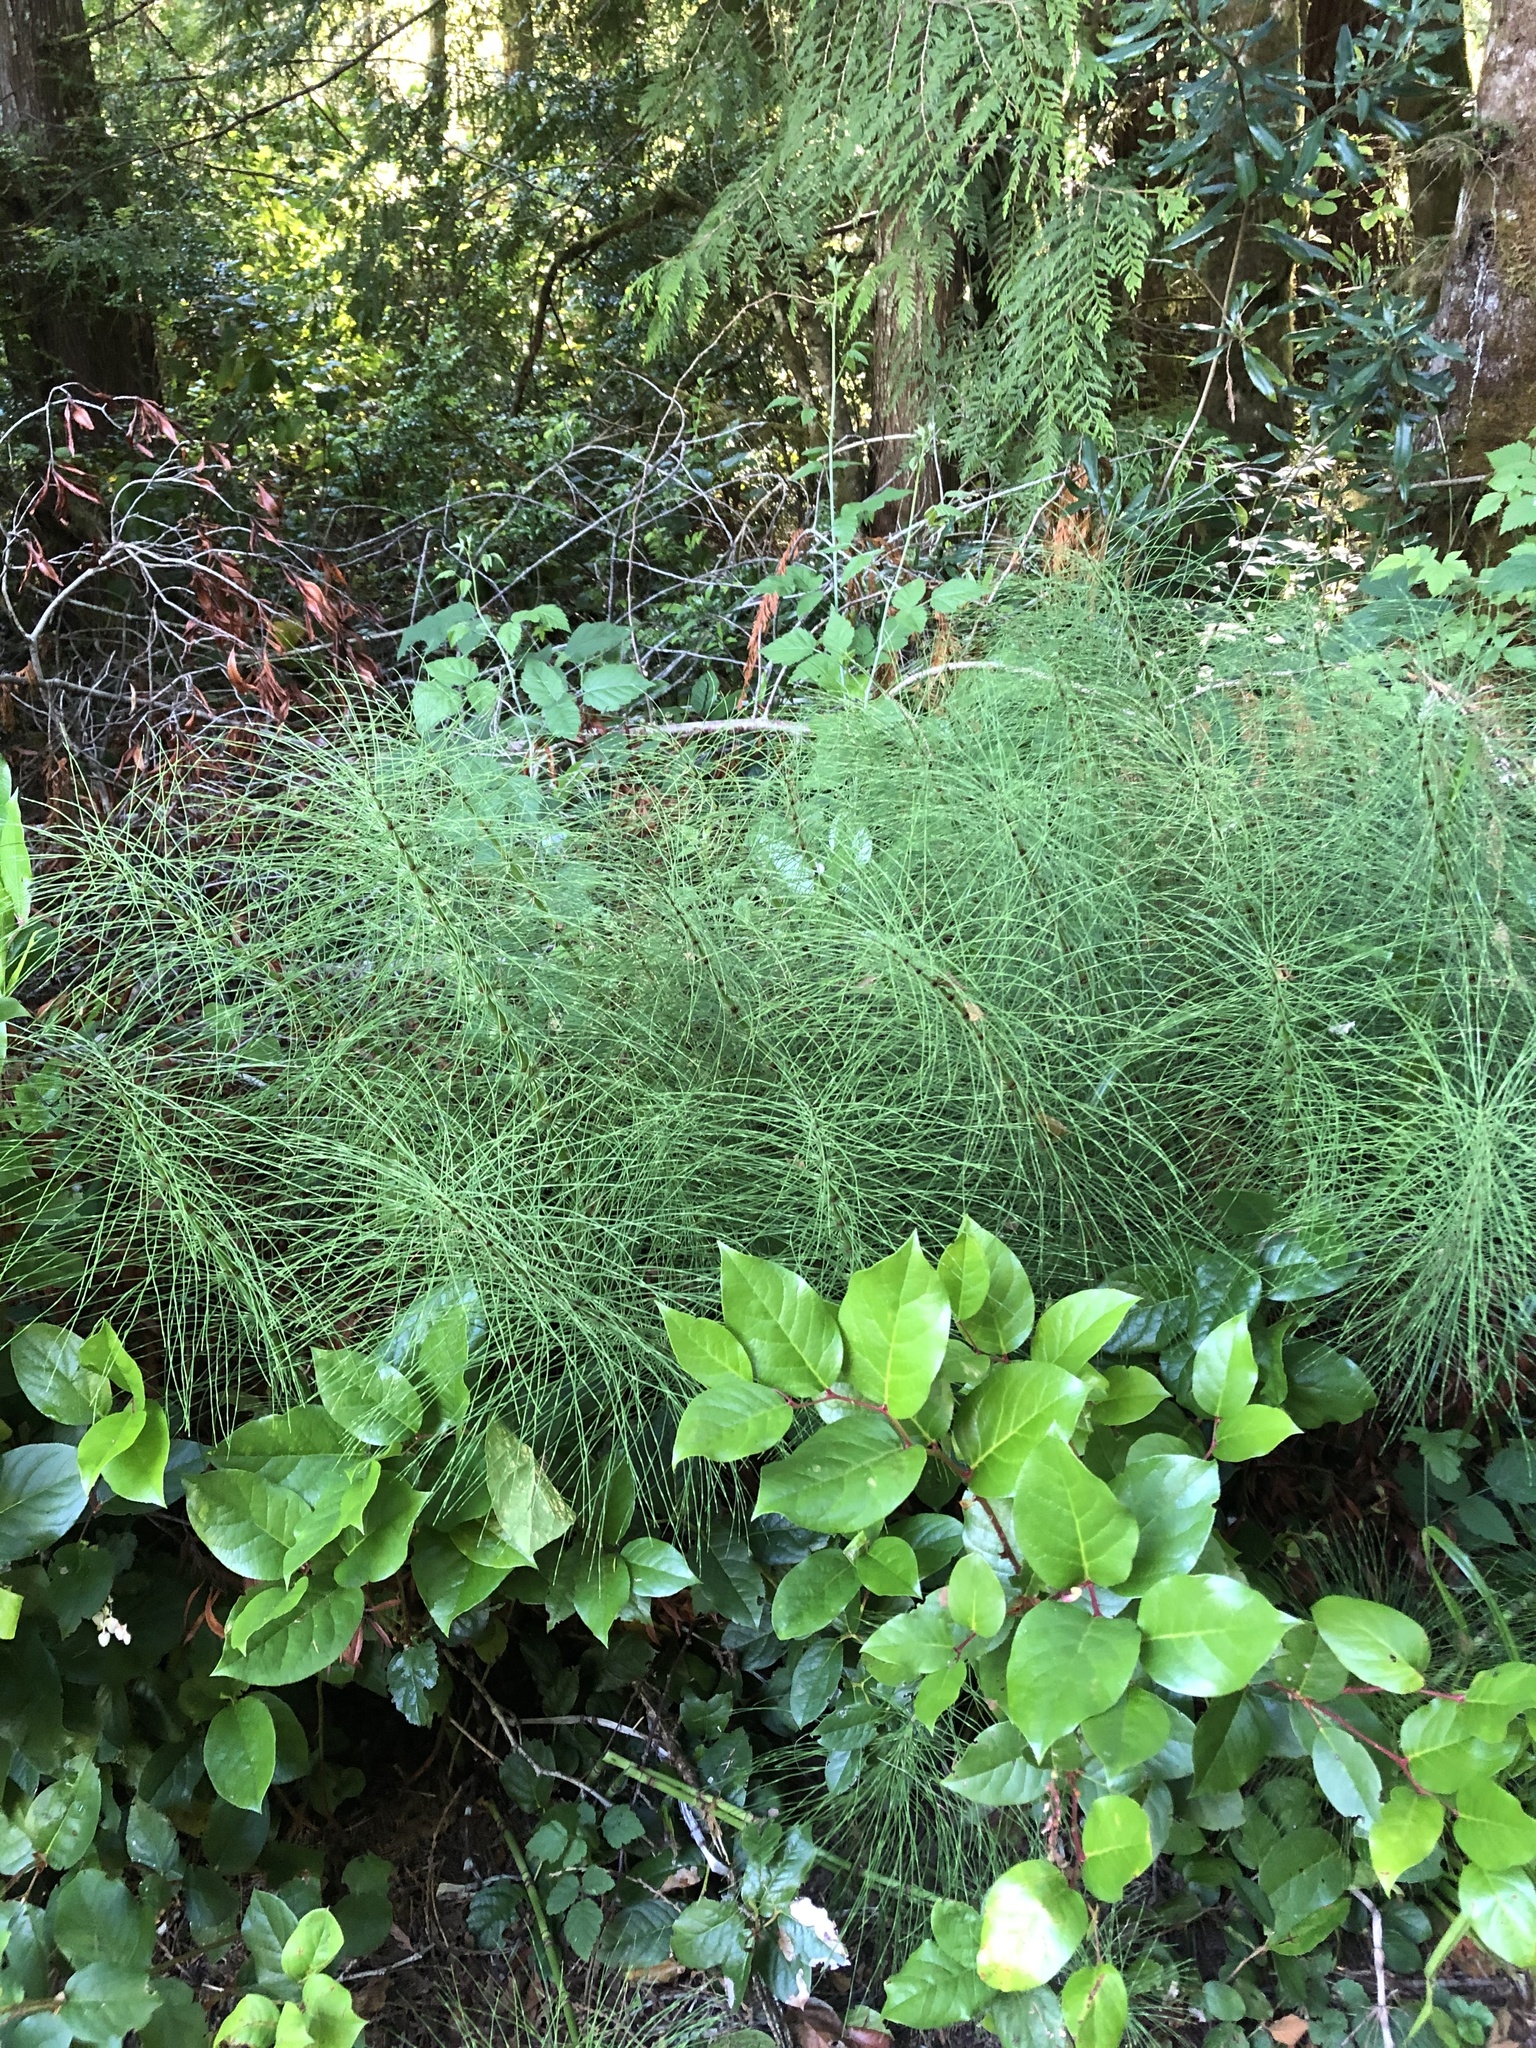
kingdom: Plantae
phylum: Tracheophyta
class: Polypodiopsida
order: Equisetales
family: Equisetaceae
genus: Equisetum
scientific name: Equisetum telmateia
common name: Great horsetail
